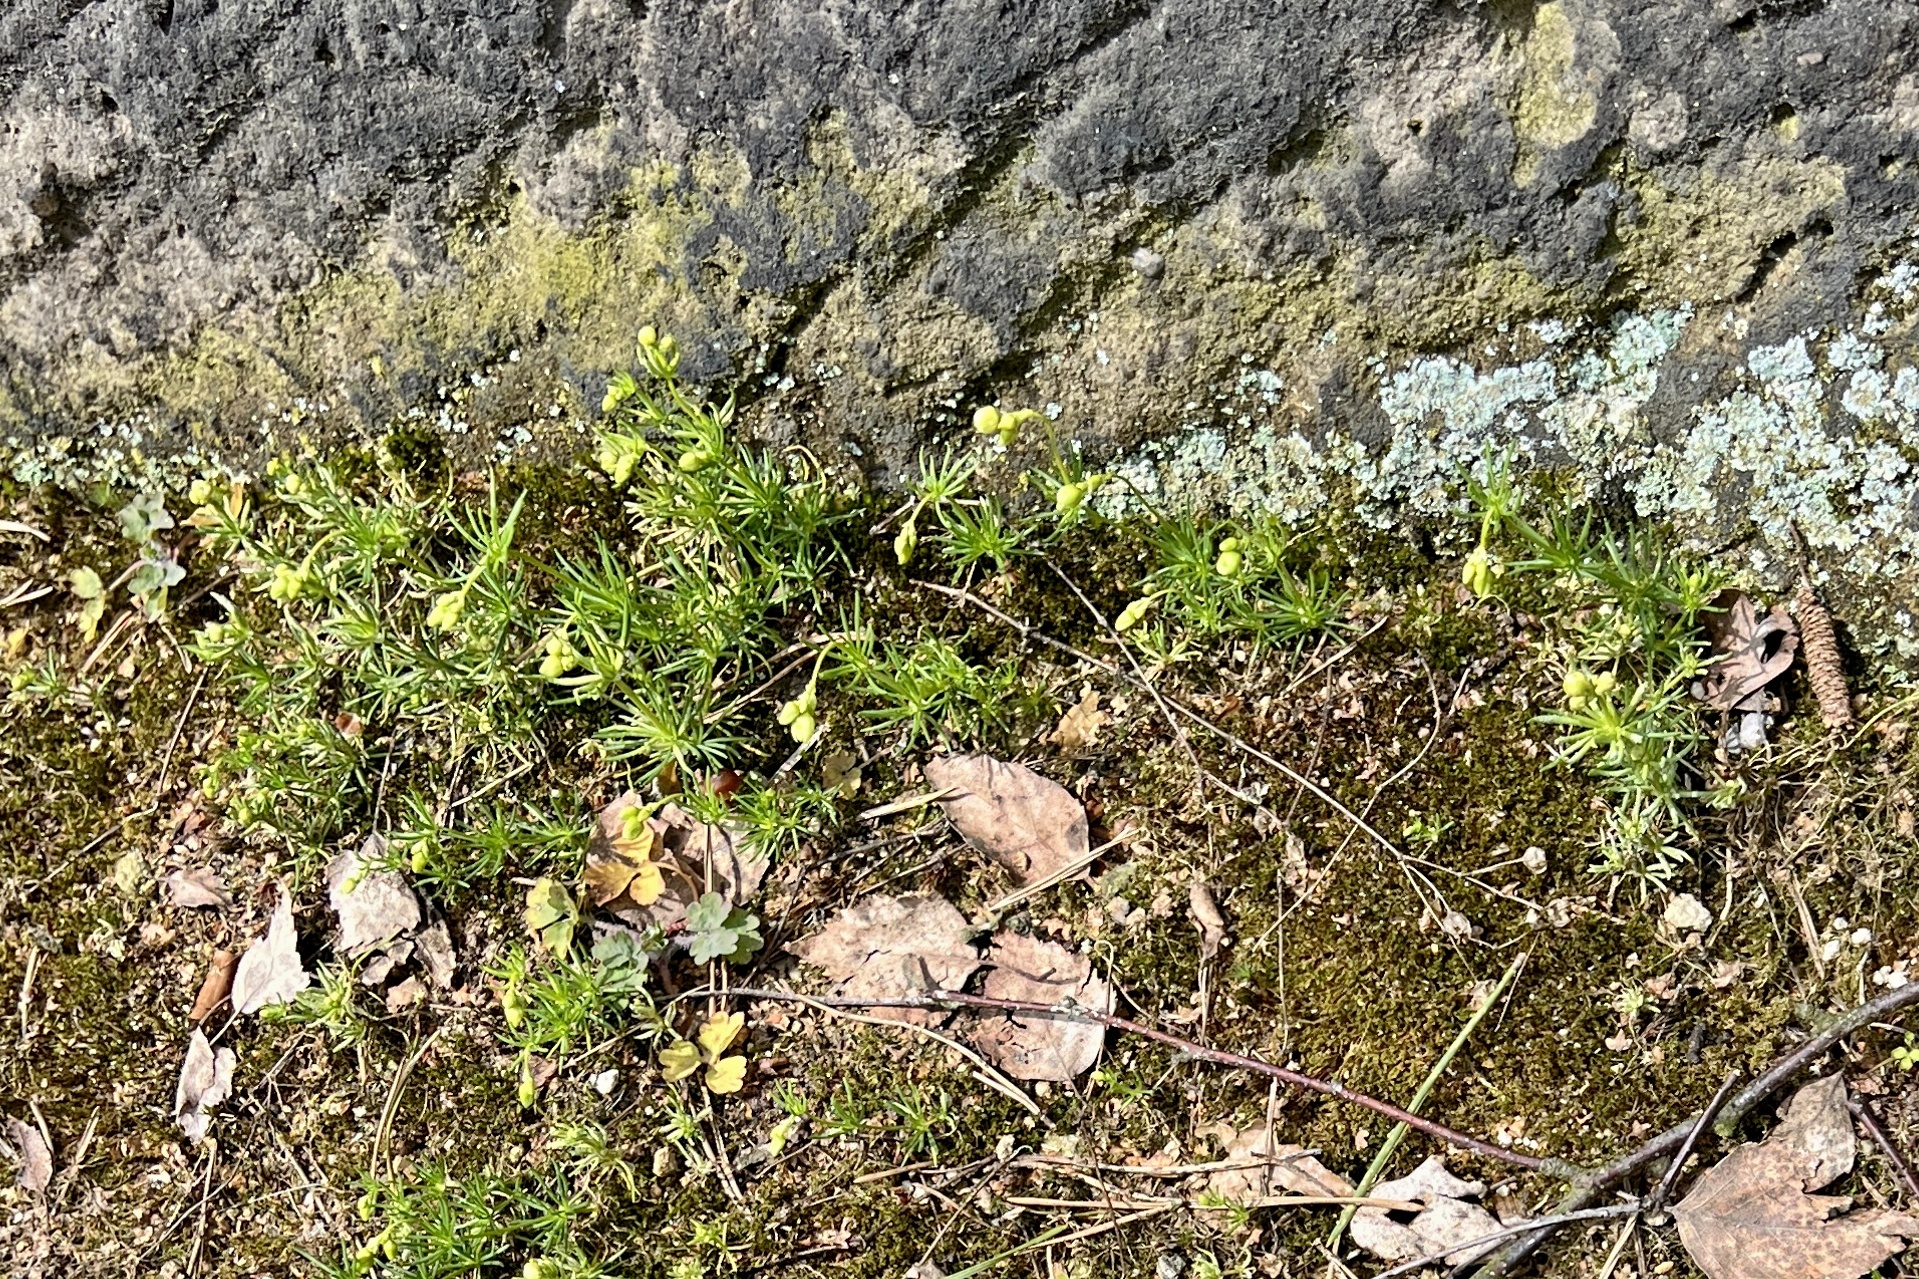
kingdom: Plantae
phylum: Tracheophyta
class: Magnoliopsida
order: Caryophyllales
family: Caryophyllaceae
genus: Spergula
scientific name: Spergula morisonii
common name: Pearlwort spurrey
